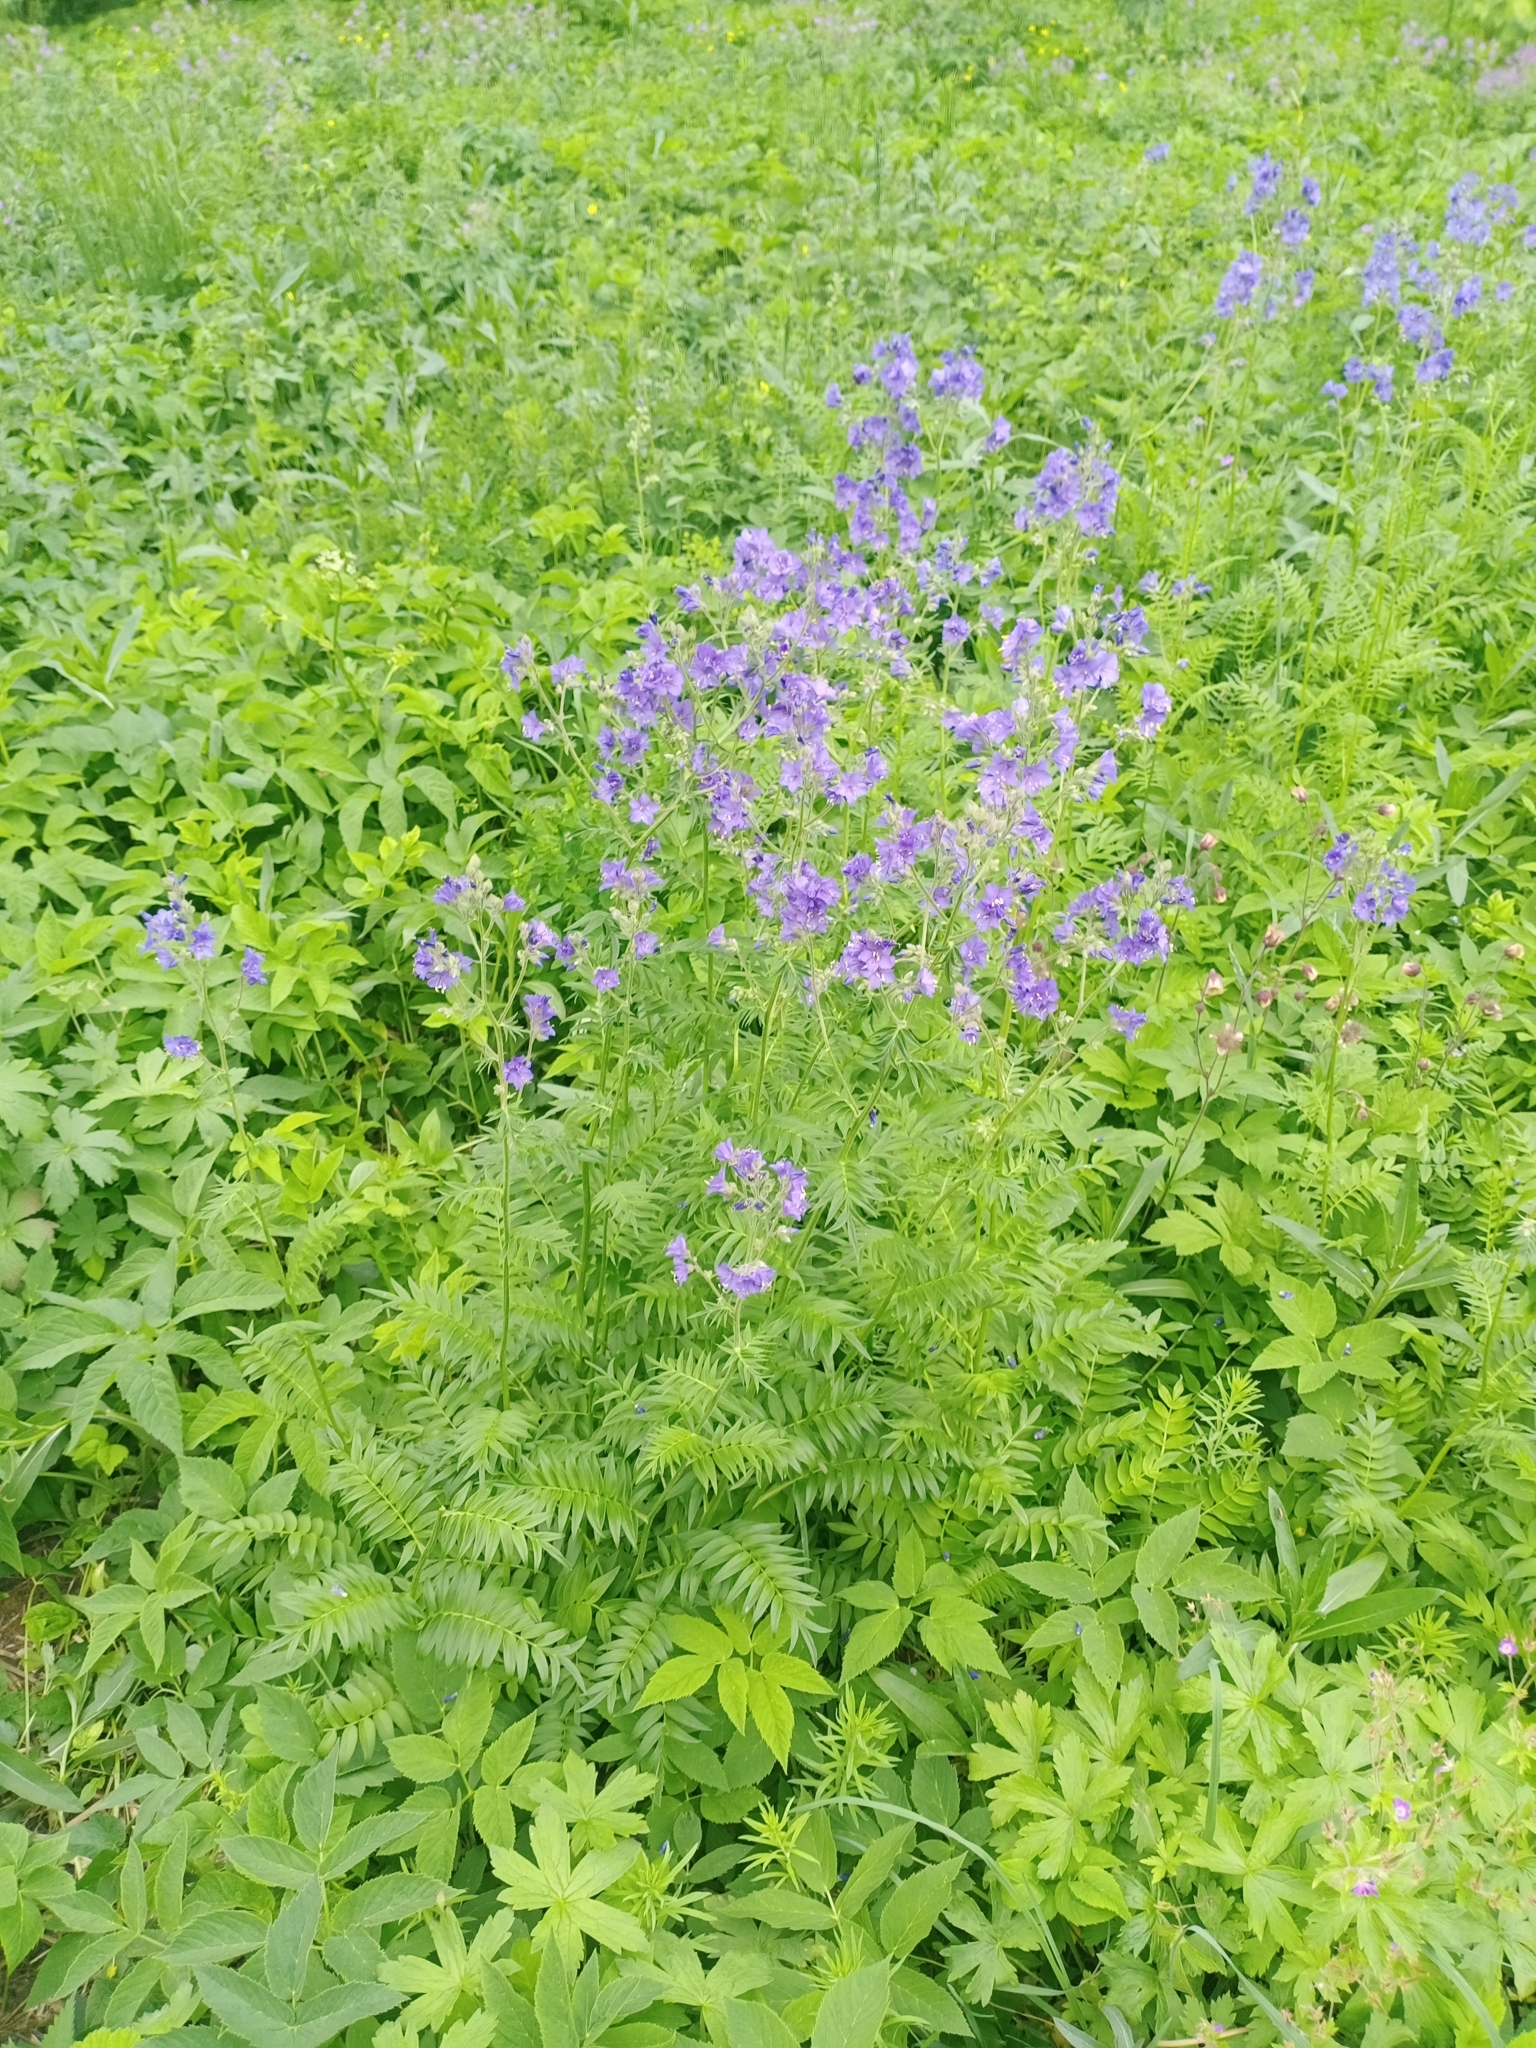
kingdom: Plantae
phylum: Tracheophyta
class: Magnoliopsida
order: Ericales
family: Polemoniaceae
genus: Polemonium
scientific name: Polemonium caeruleum
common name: Jacob's-ladder
